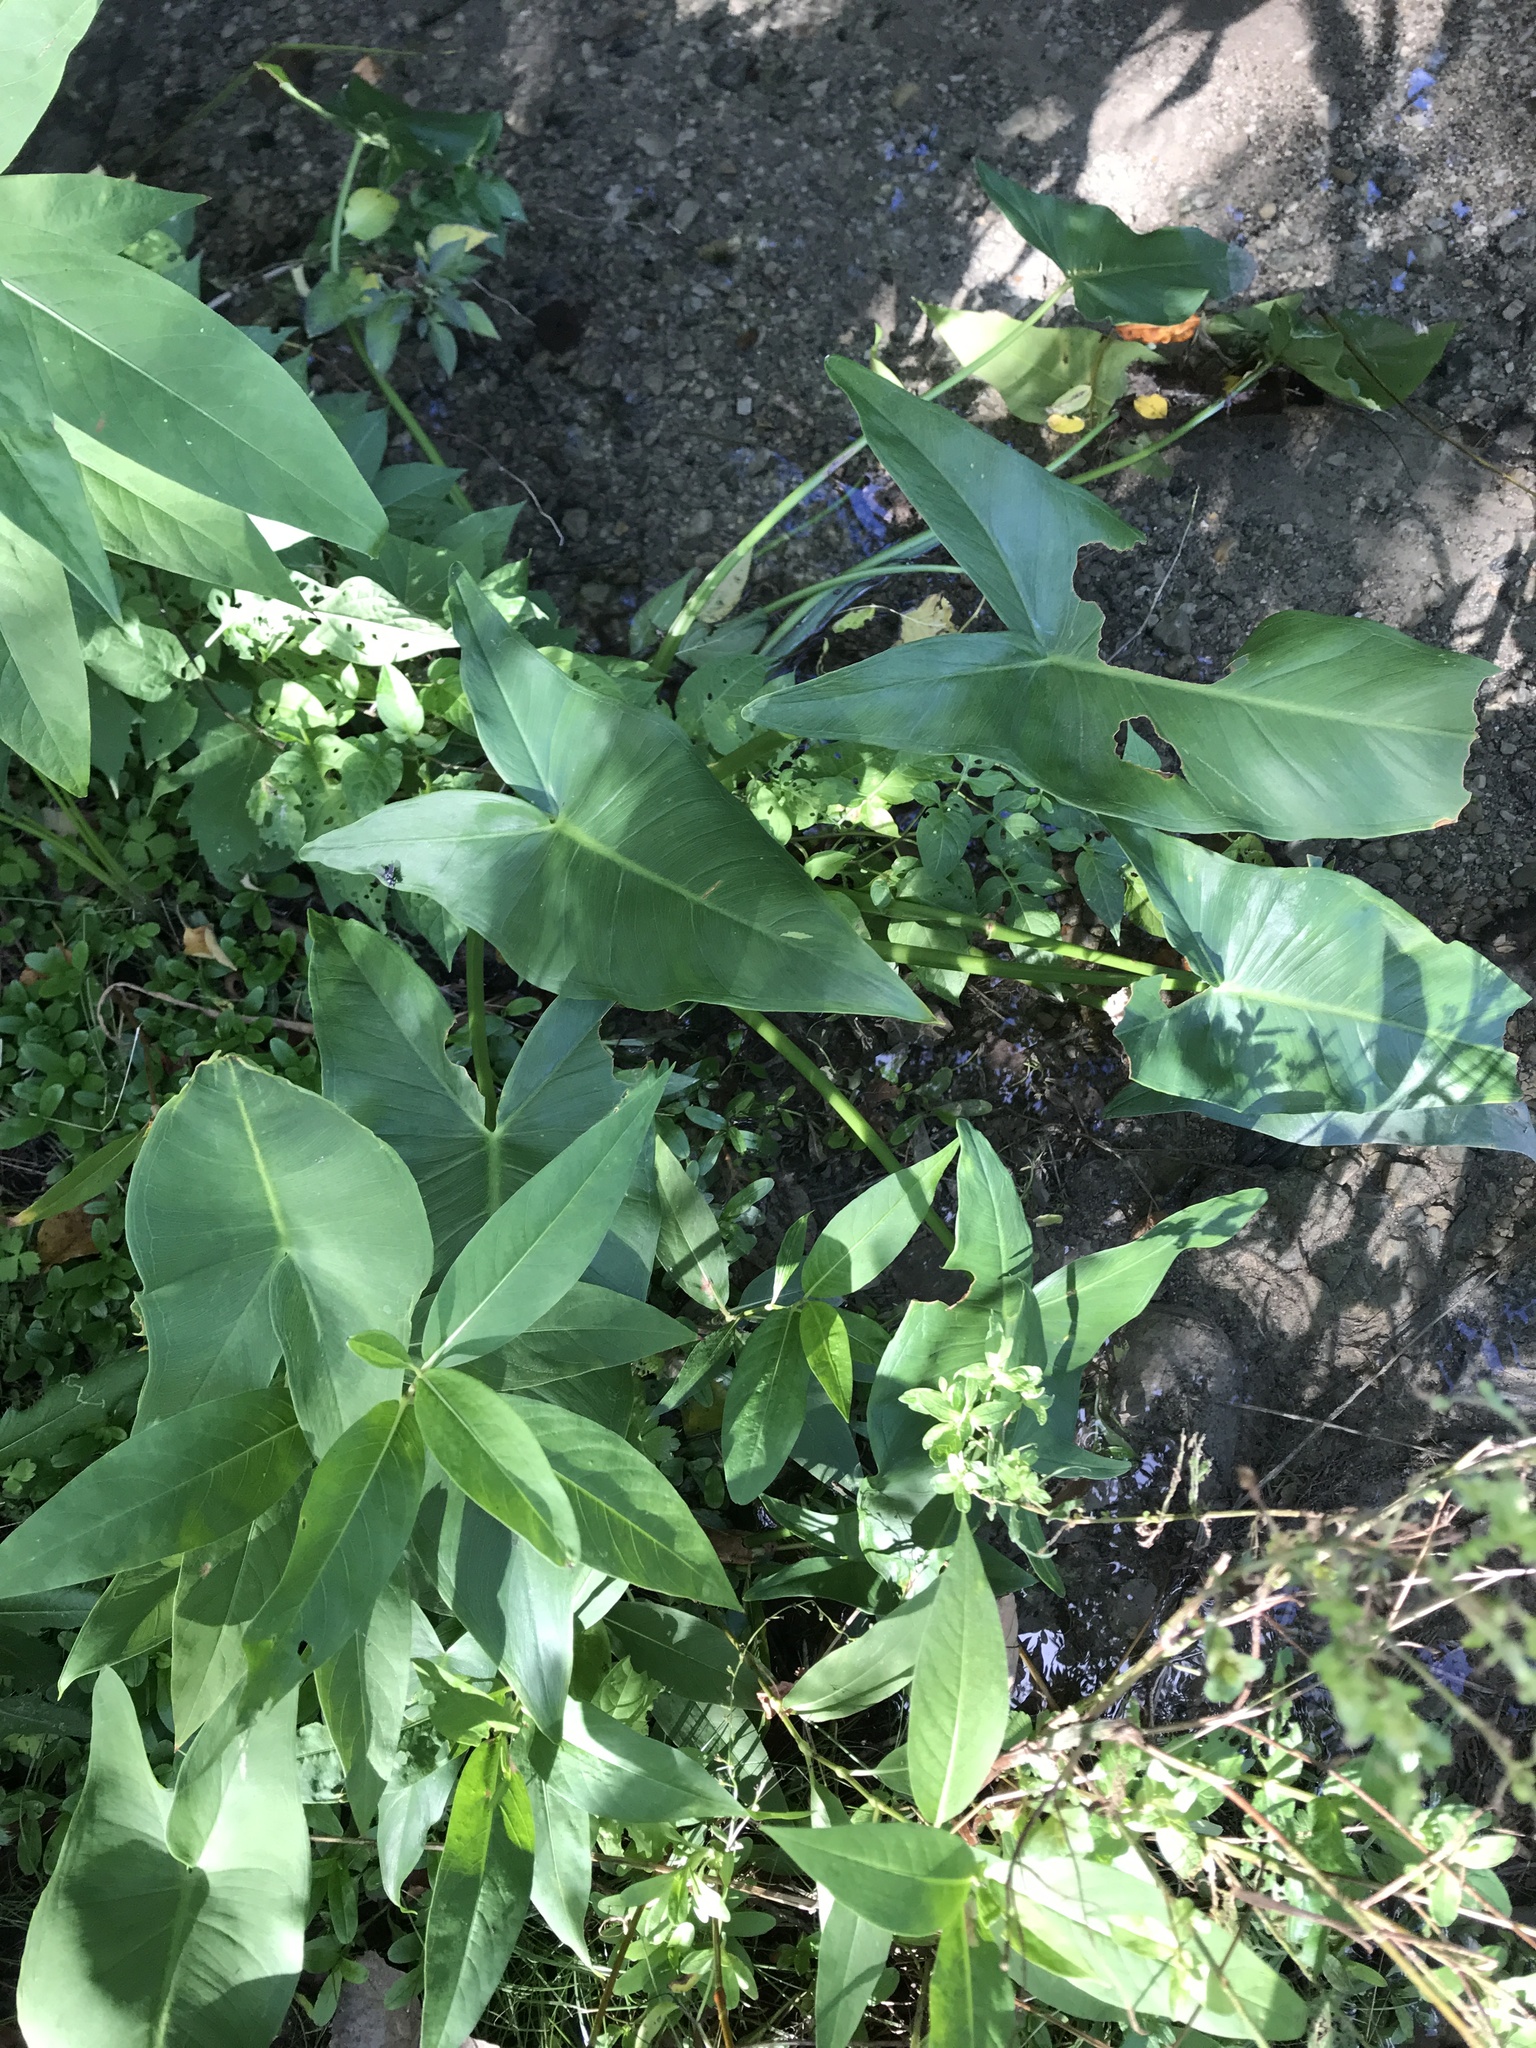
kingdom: Plantae
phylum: Tracheophyta
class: Liliopsida
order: Alismatales
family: Araceae
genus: Peltandra
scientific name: Peltandra virginica
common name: Arrow arum
